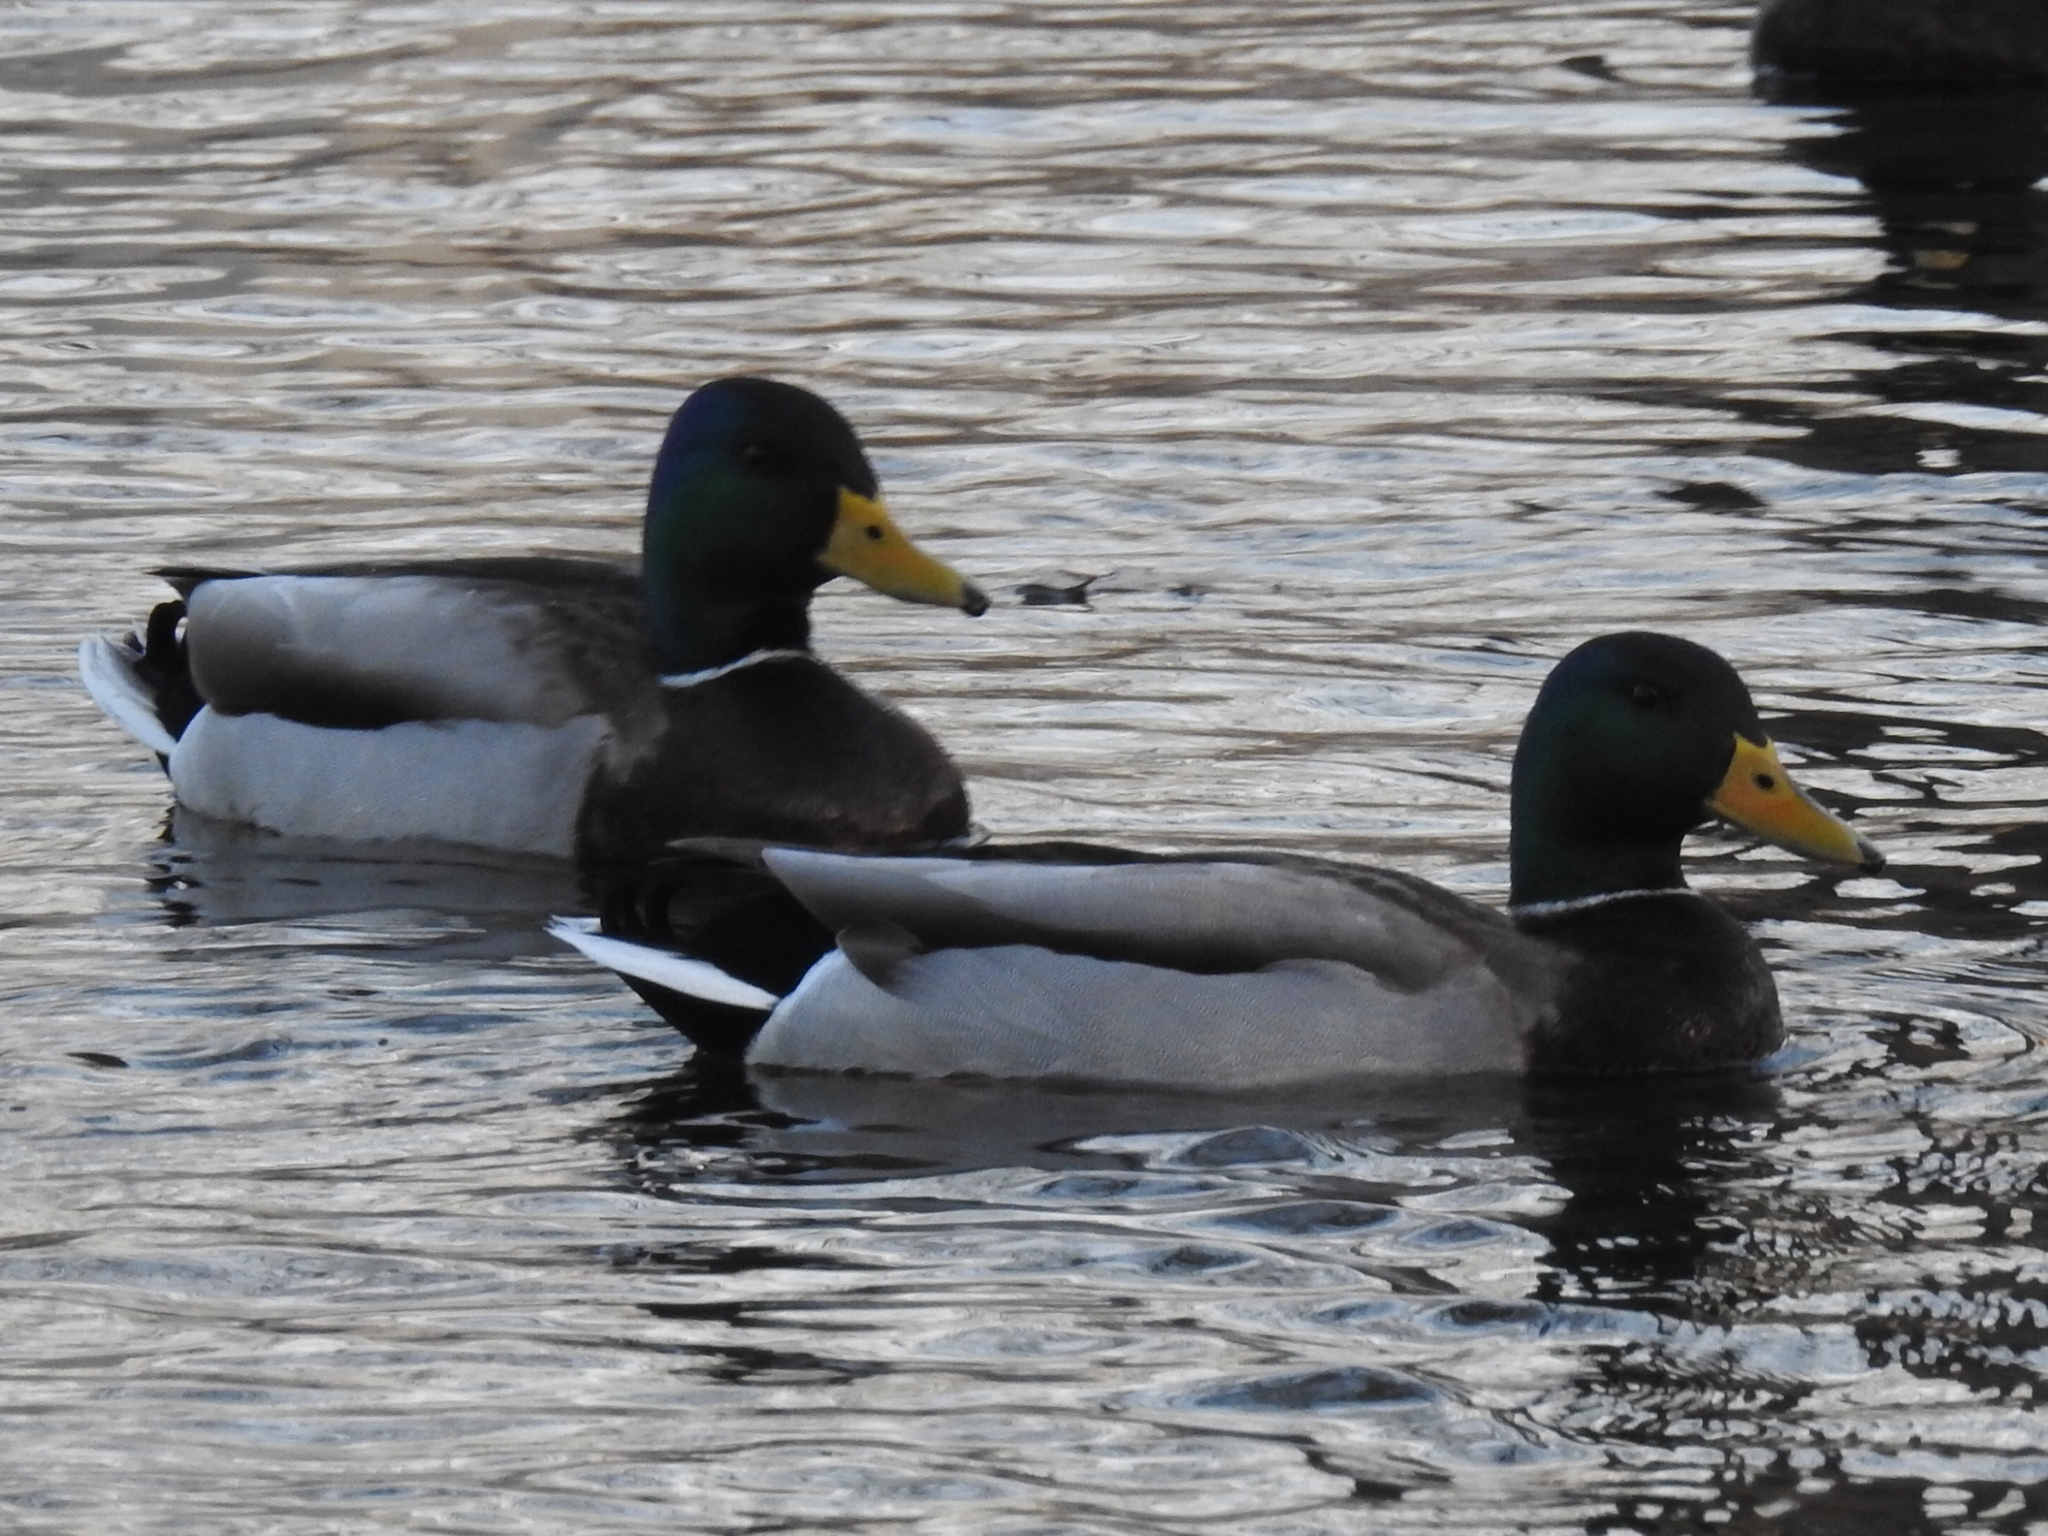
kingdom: Animalia
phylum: Chordata
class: Aves
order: Anseriformes
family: Anatidae
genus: Anas
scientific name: Anas platyrhynchos
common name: Mallard
